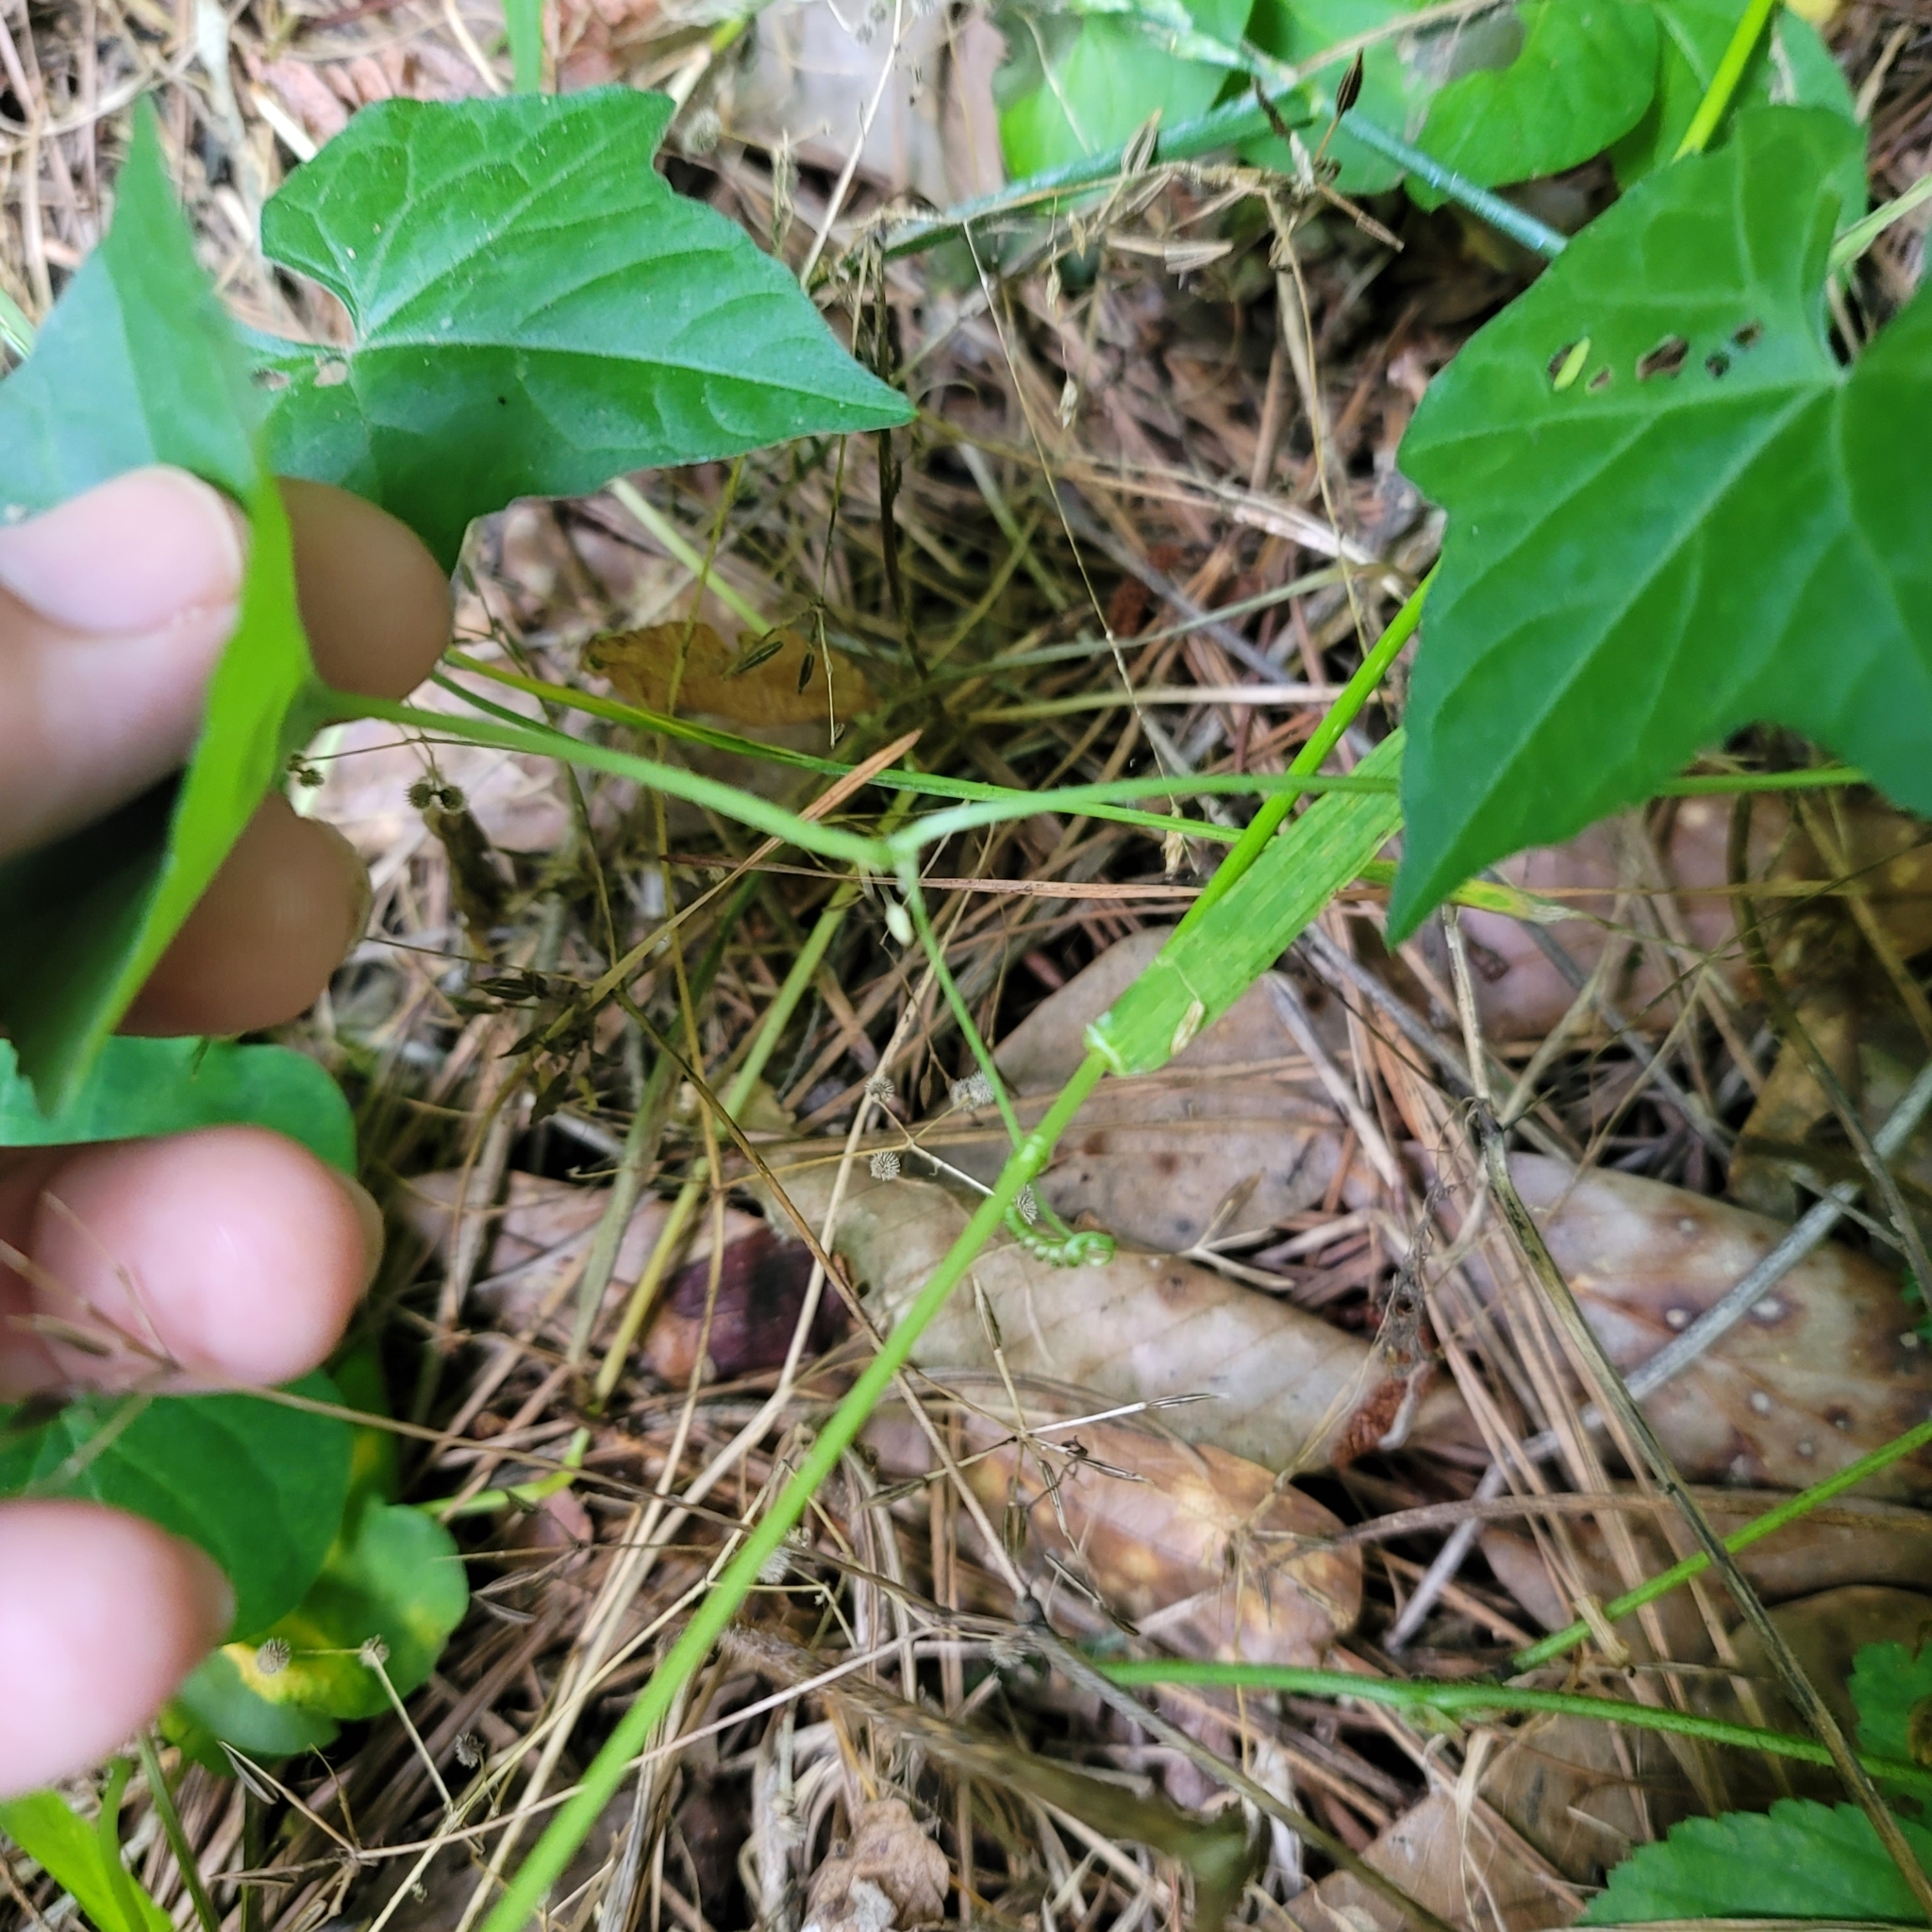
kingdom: Plantae
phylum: Tracheophyta
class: Magnoliopsida
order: Cucurbitales
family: Cucurbitaceae
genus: Melothria
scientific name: Melothria pendula
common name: Creeping-cucumber
